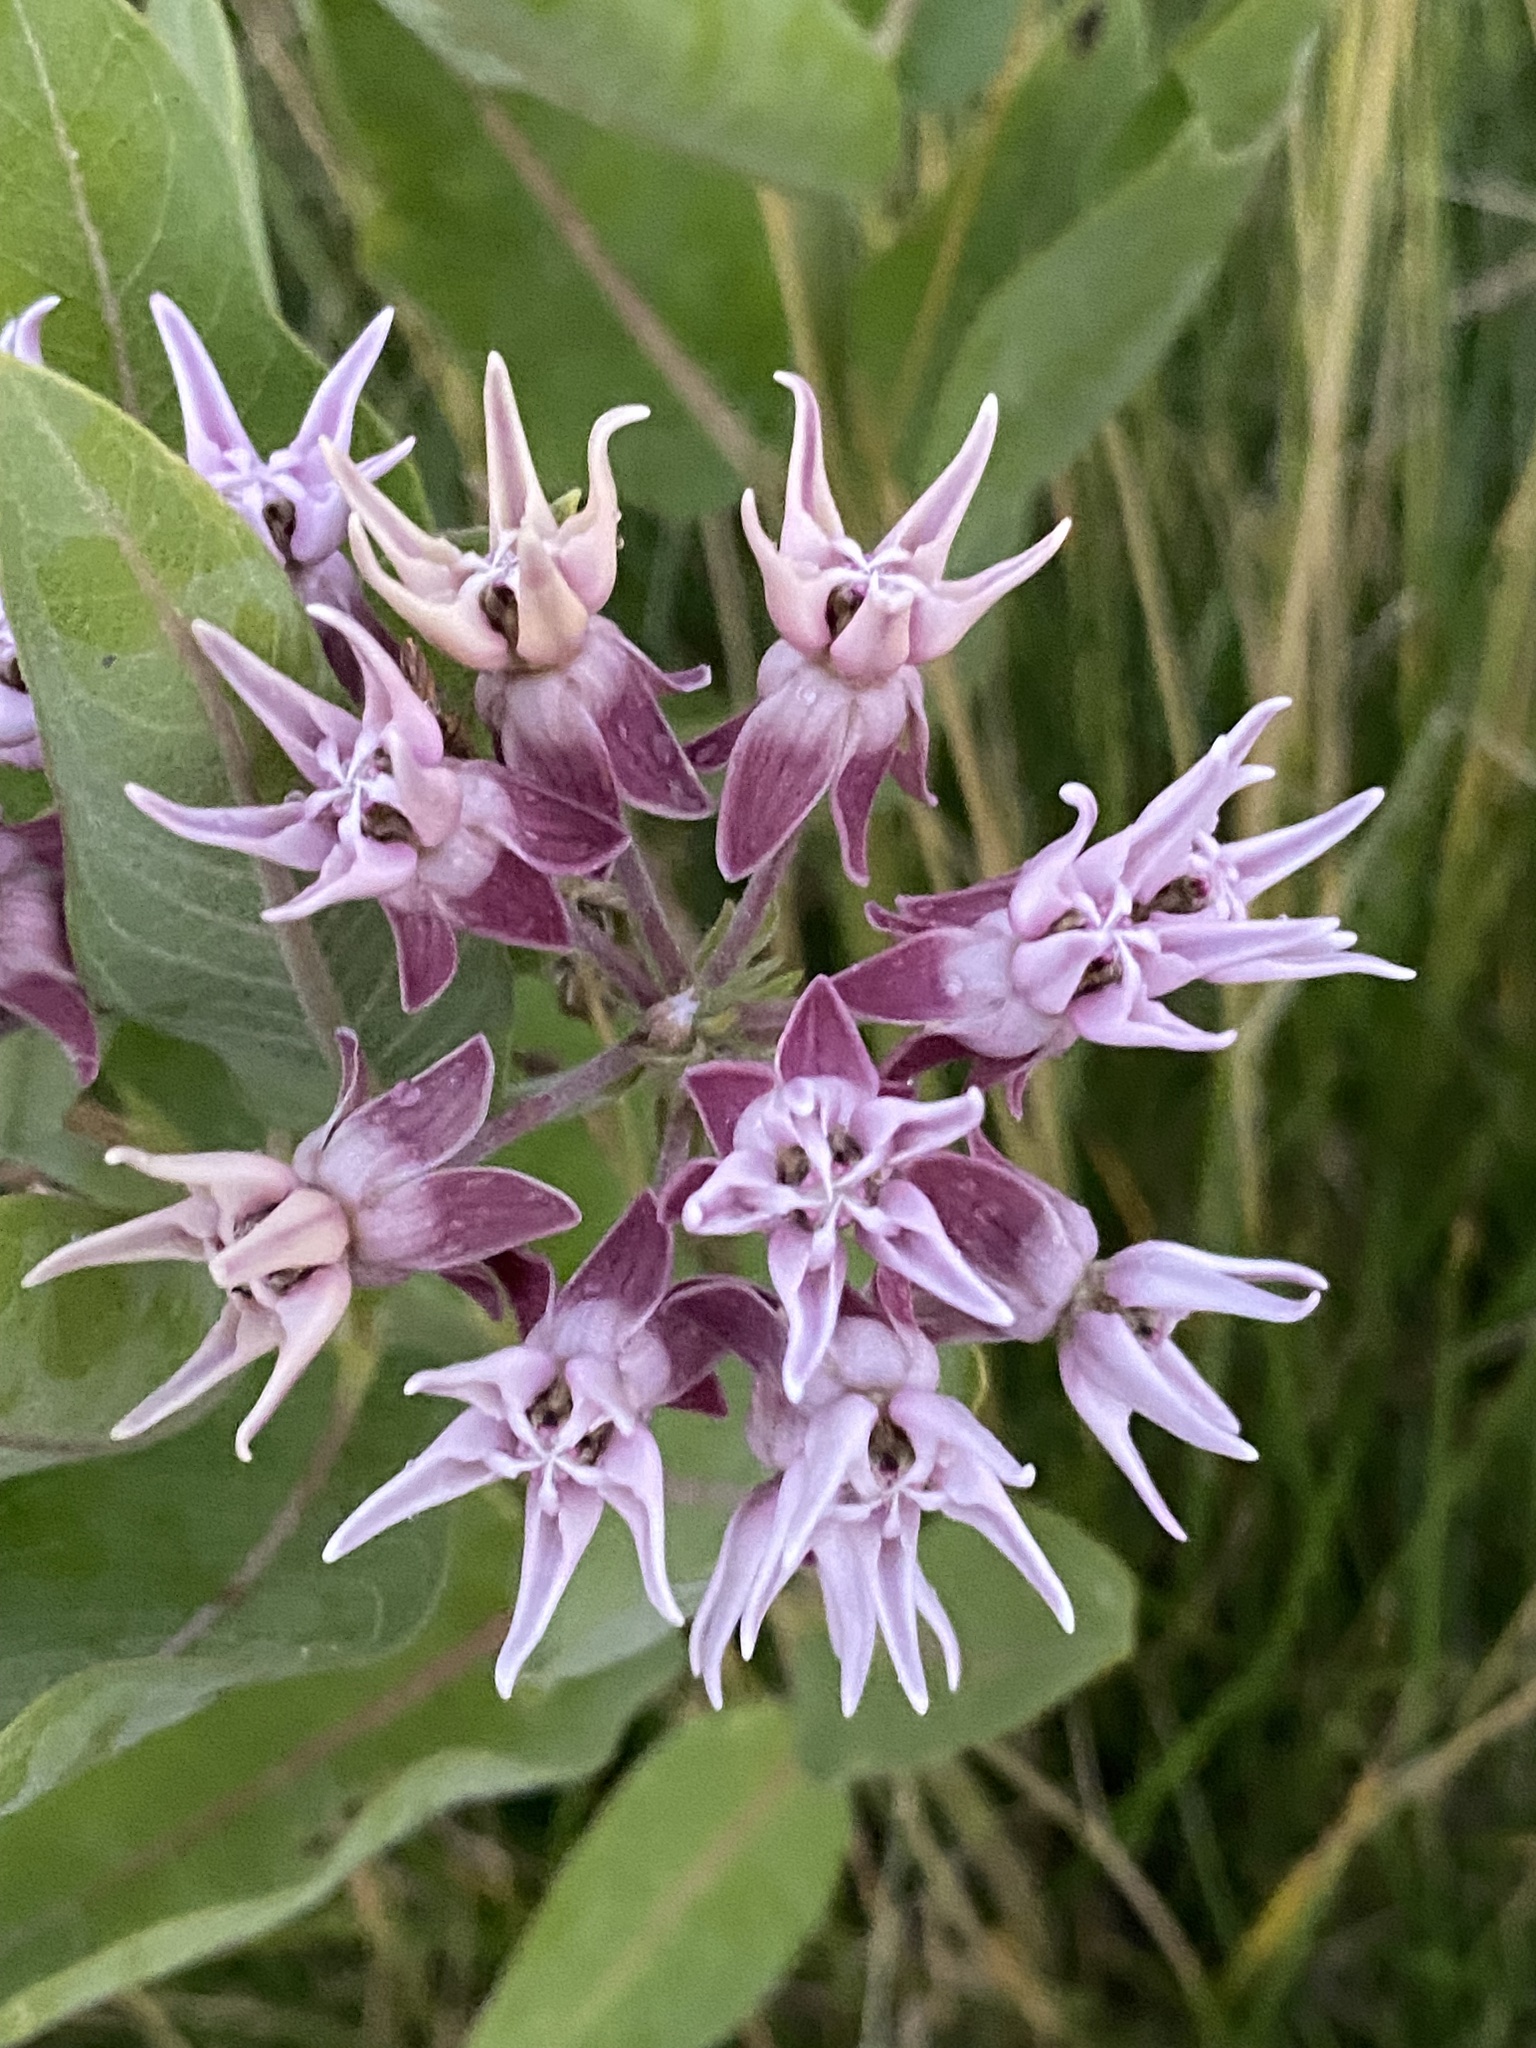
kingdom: Plantae
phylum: Tracheophyta
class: Magnoliopsida
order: Gentianales
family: Apocynaceae
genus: Asclepias
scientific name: Asclepias speciosa
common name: Showy milkweed
